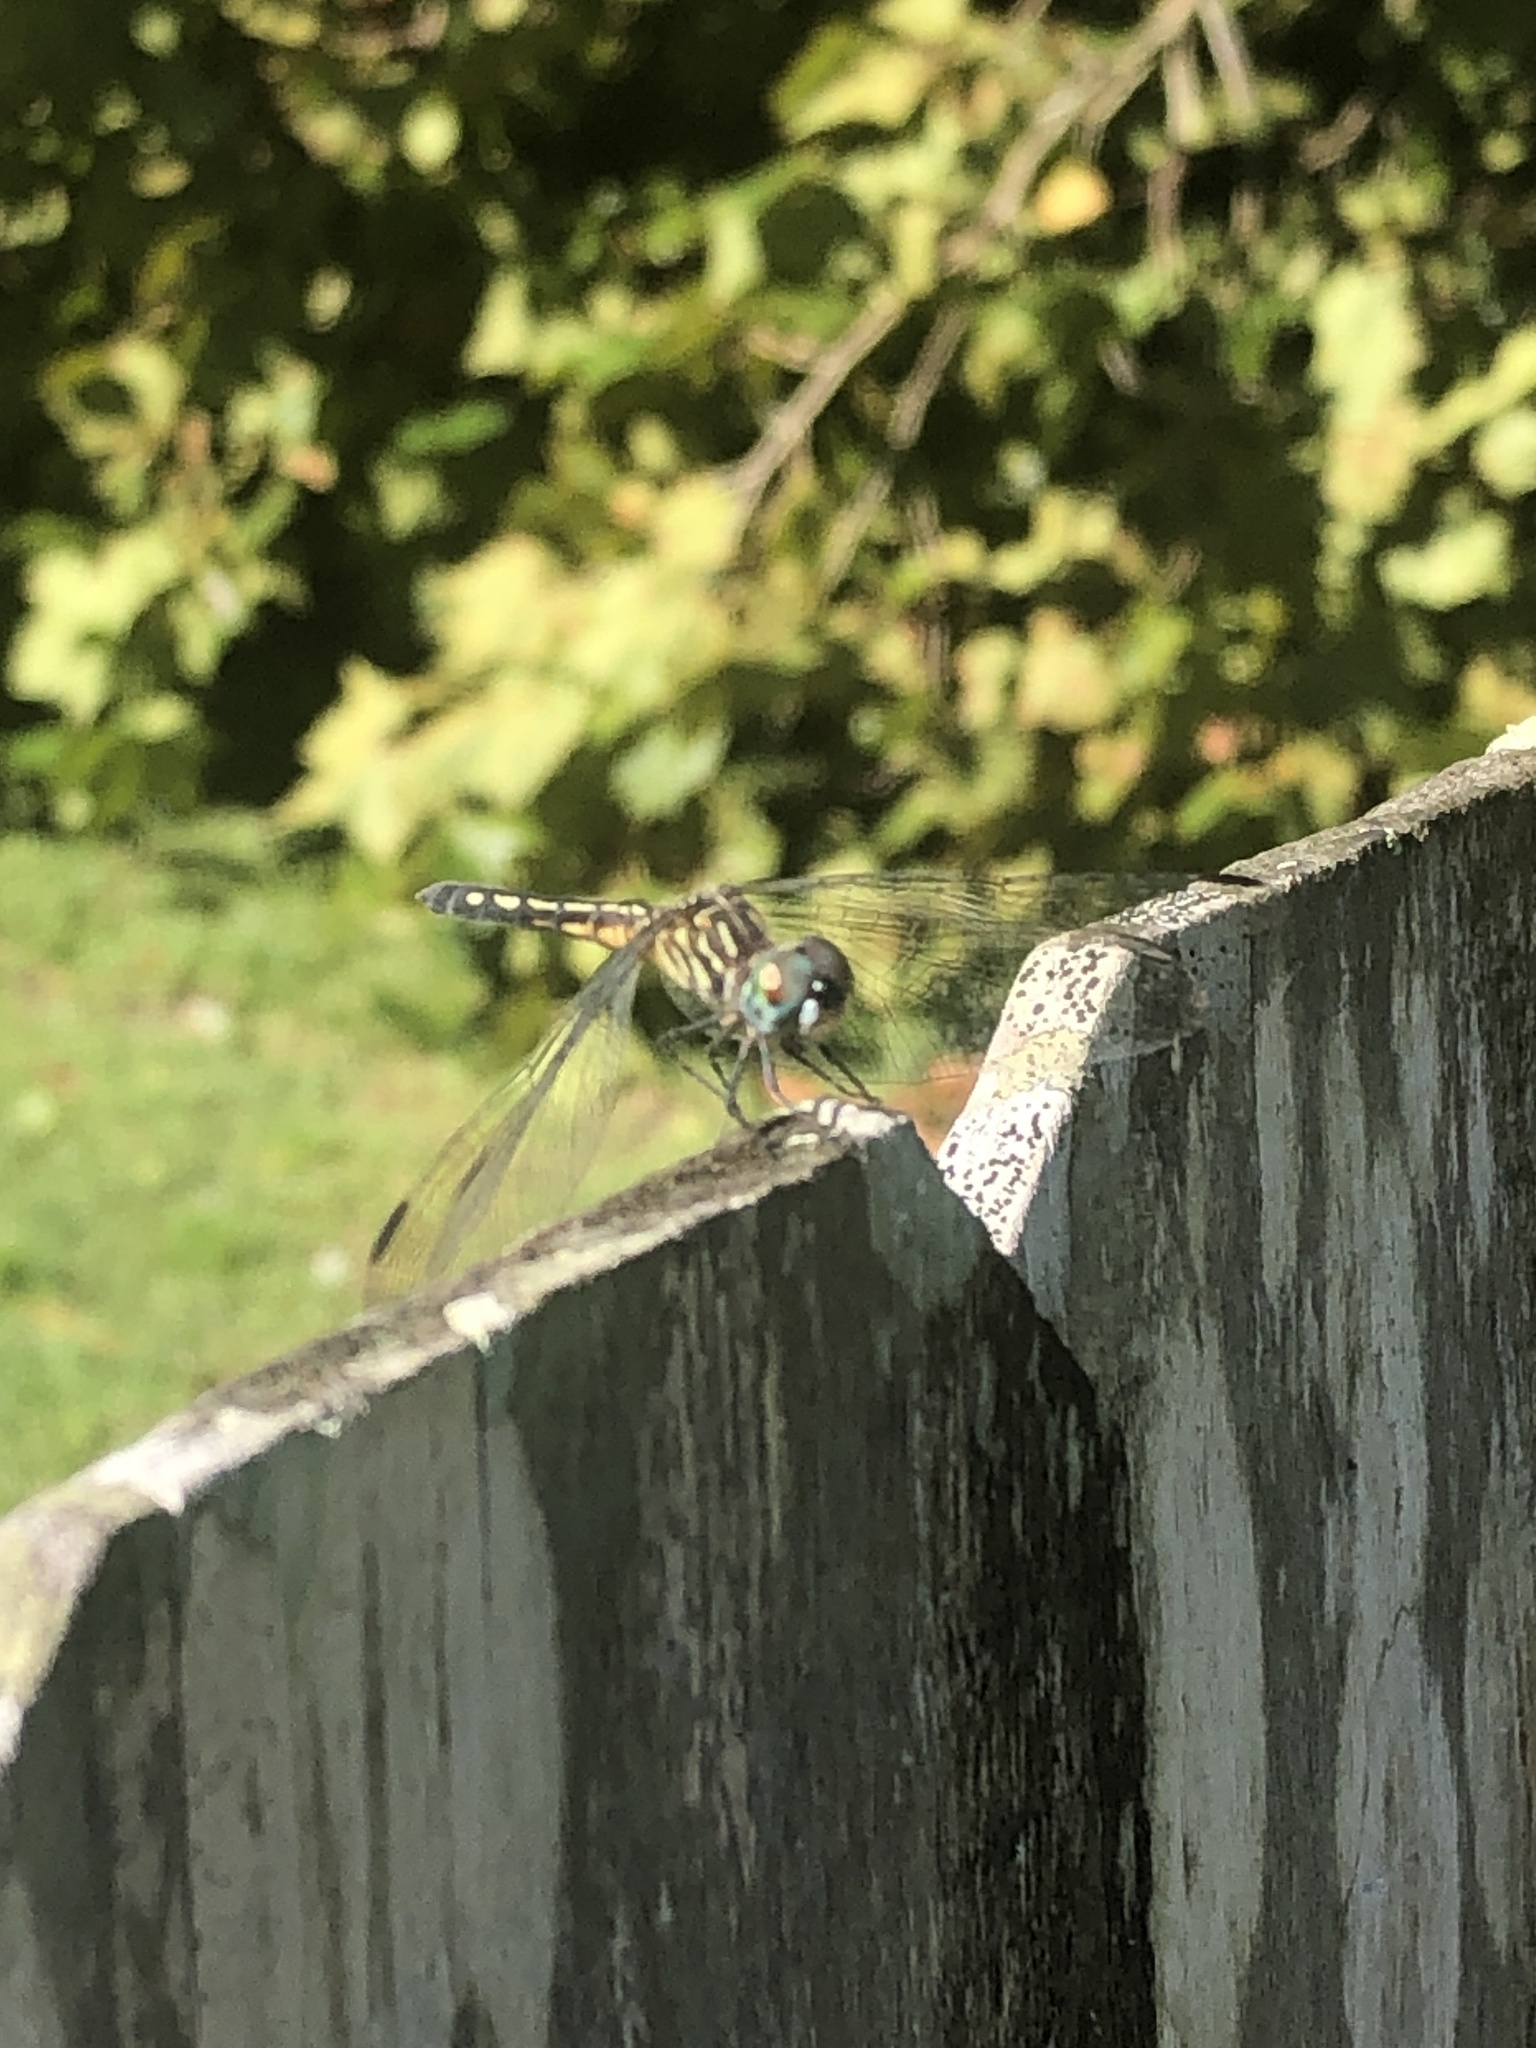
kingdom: Animalia
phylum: Arthropoda
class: Insecta
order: Odonata
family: Libellulidae
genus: Pachydiplax
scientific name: Pachydiplax longipennis
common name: Blue dasher
